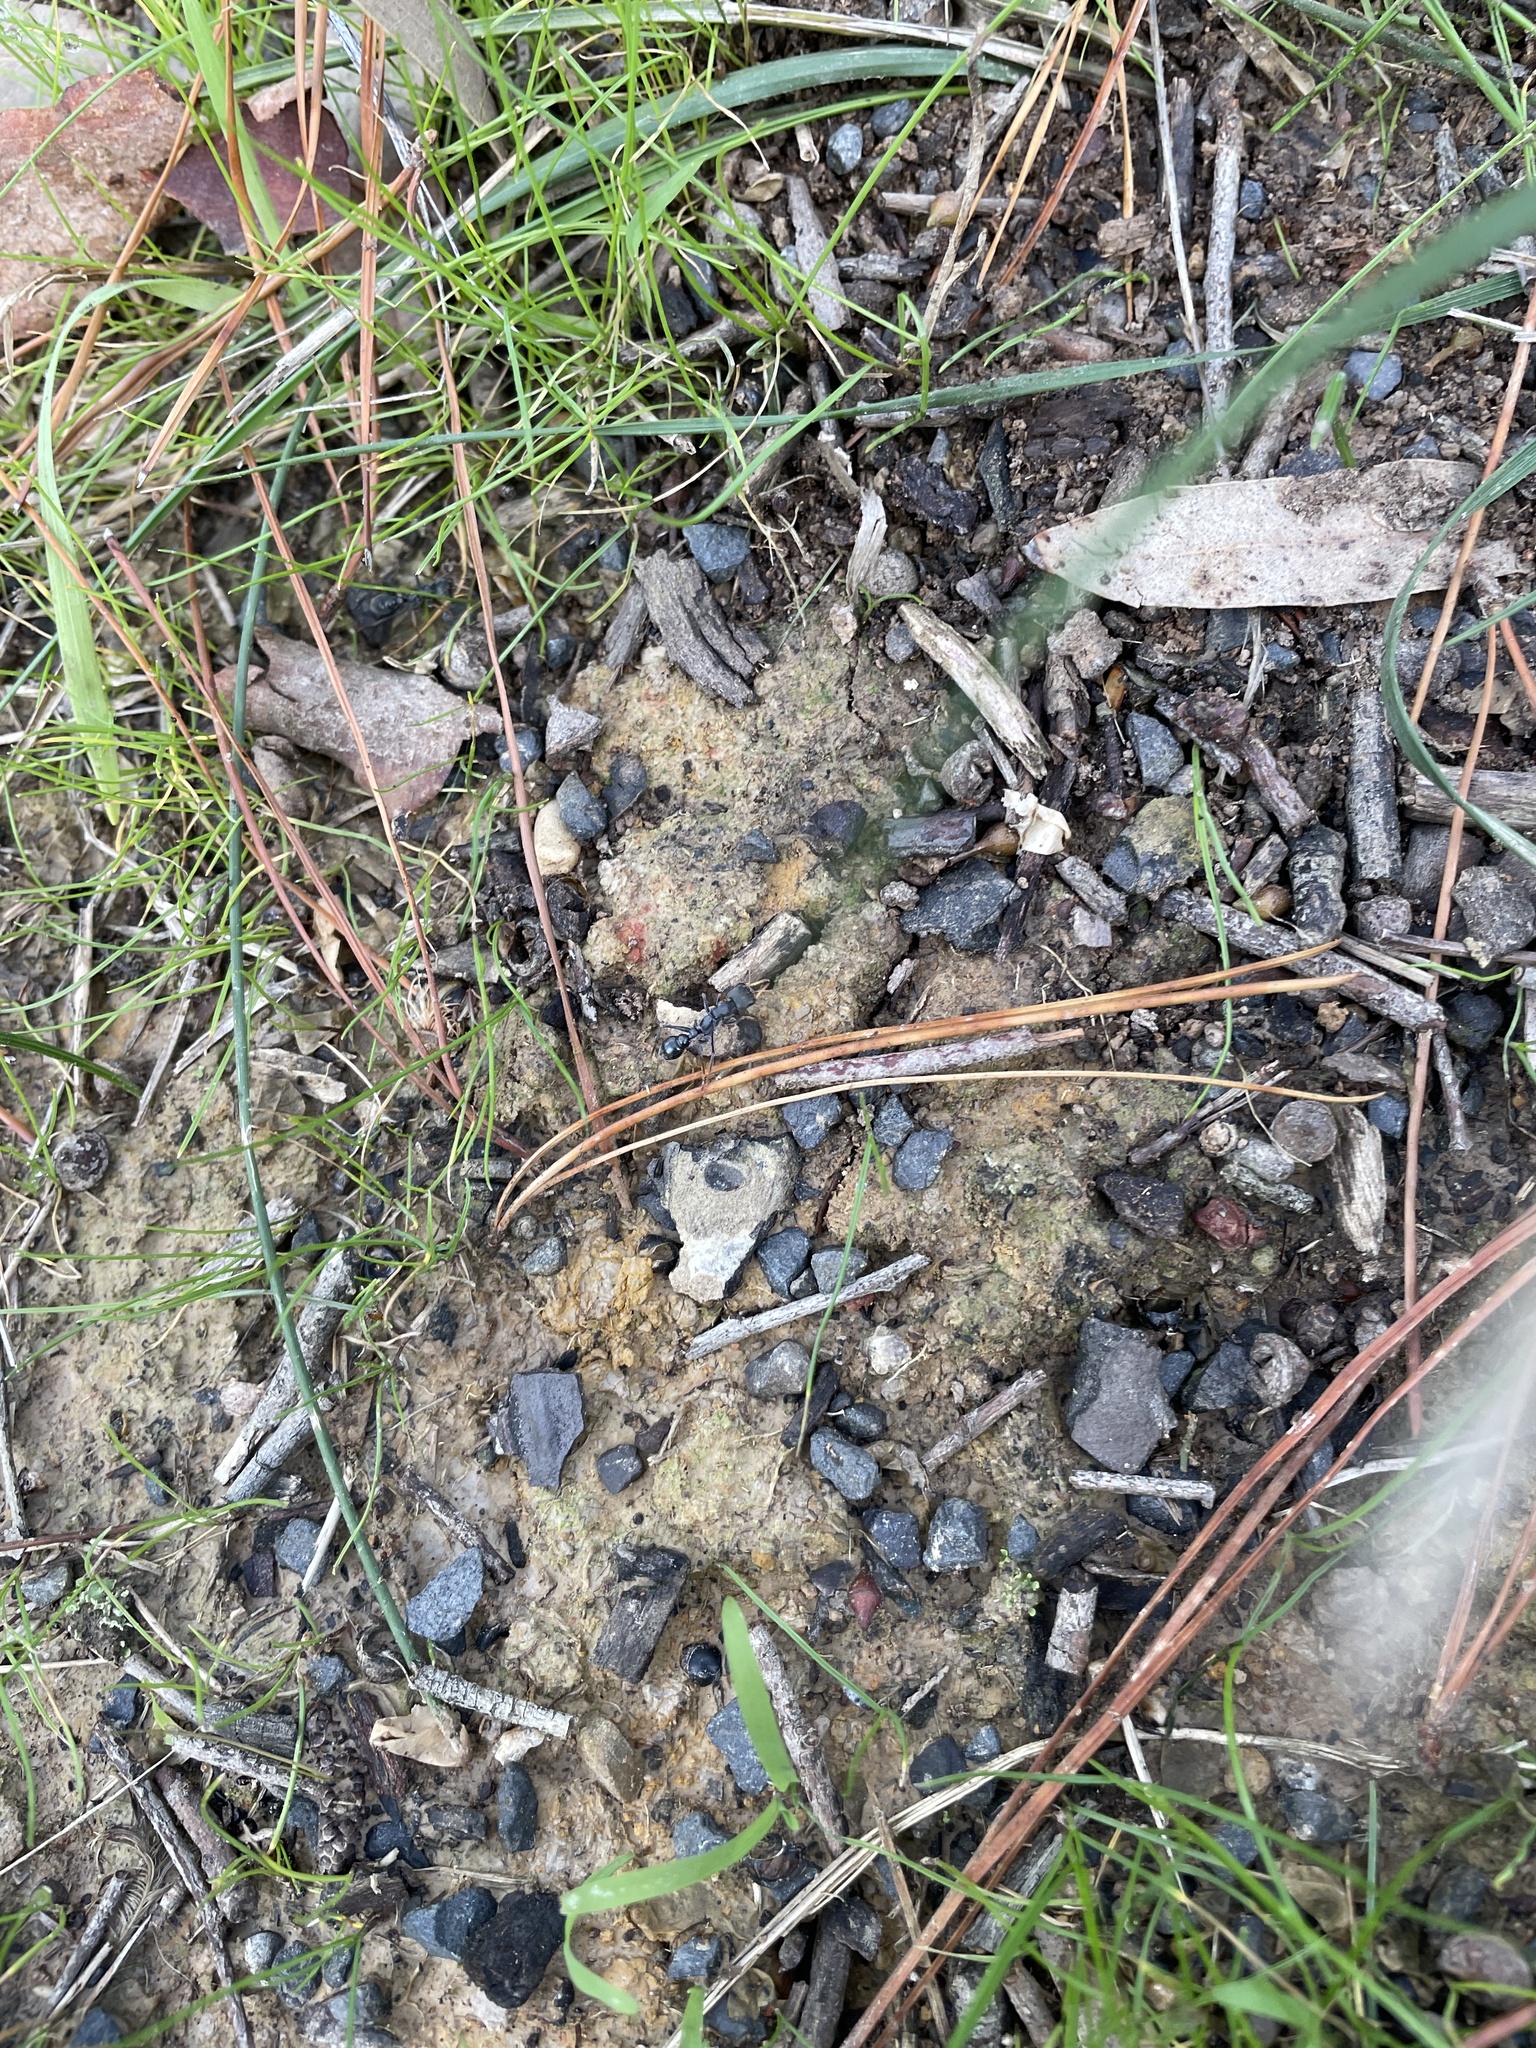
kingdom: Animalia
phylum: Arthropoda
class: Insecta
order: Hymenoptera
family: Formicidae
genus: Myrmecia
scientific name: Myrmecia pilosula
